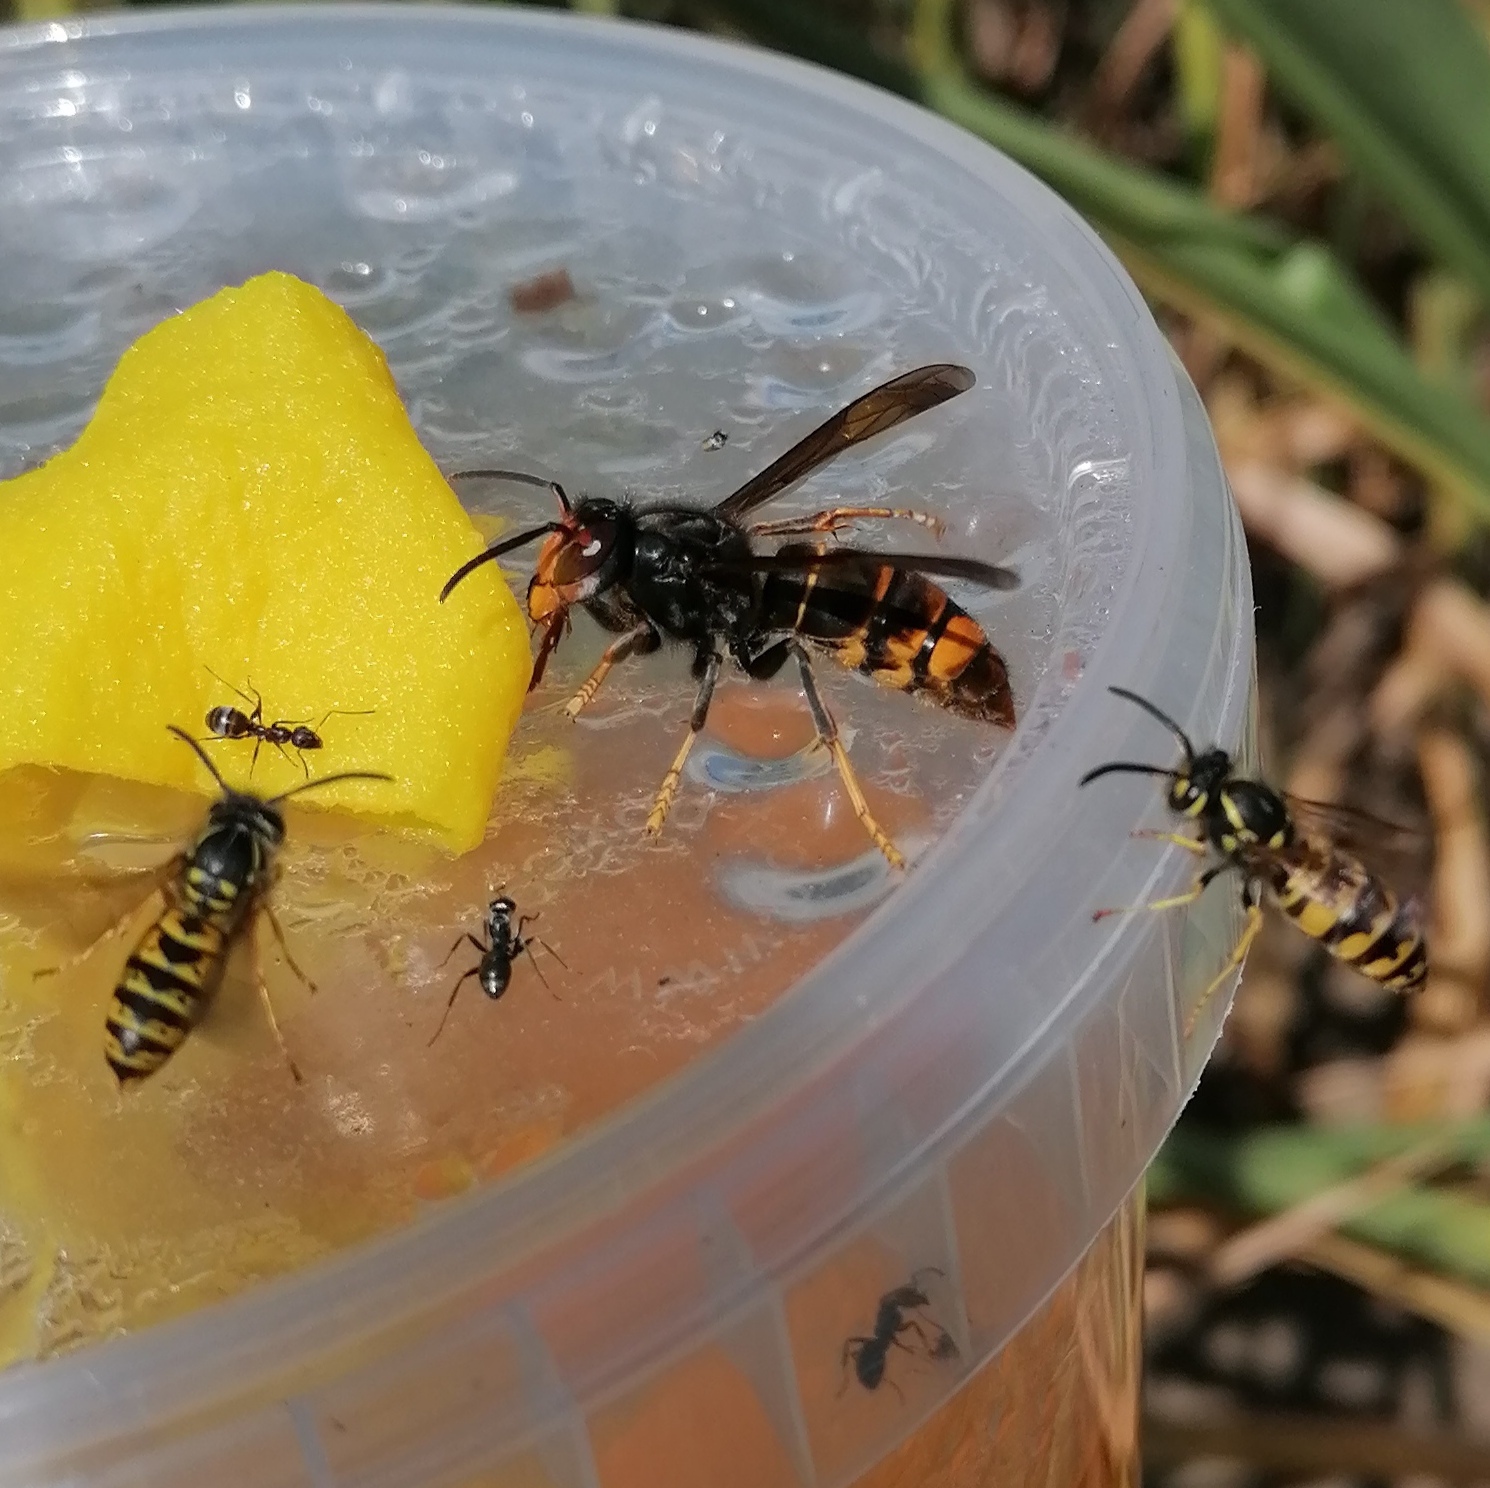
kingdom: Animalia
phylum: Arthropoda
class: Insecta
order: Hymenoptera
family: Vespidae
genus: Vespa
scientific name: Vespa velutina
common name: Asian hornet
